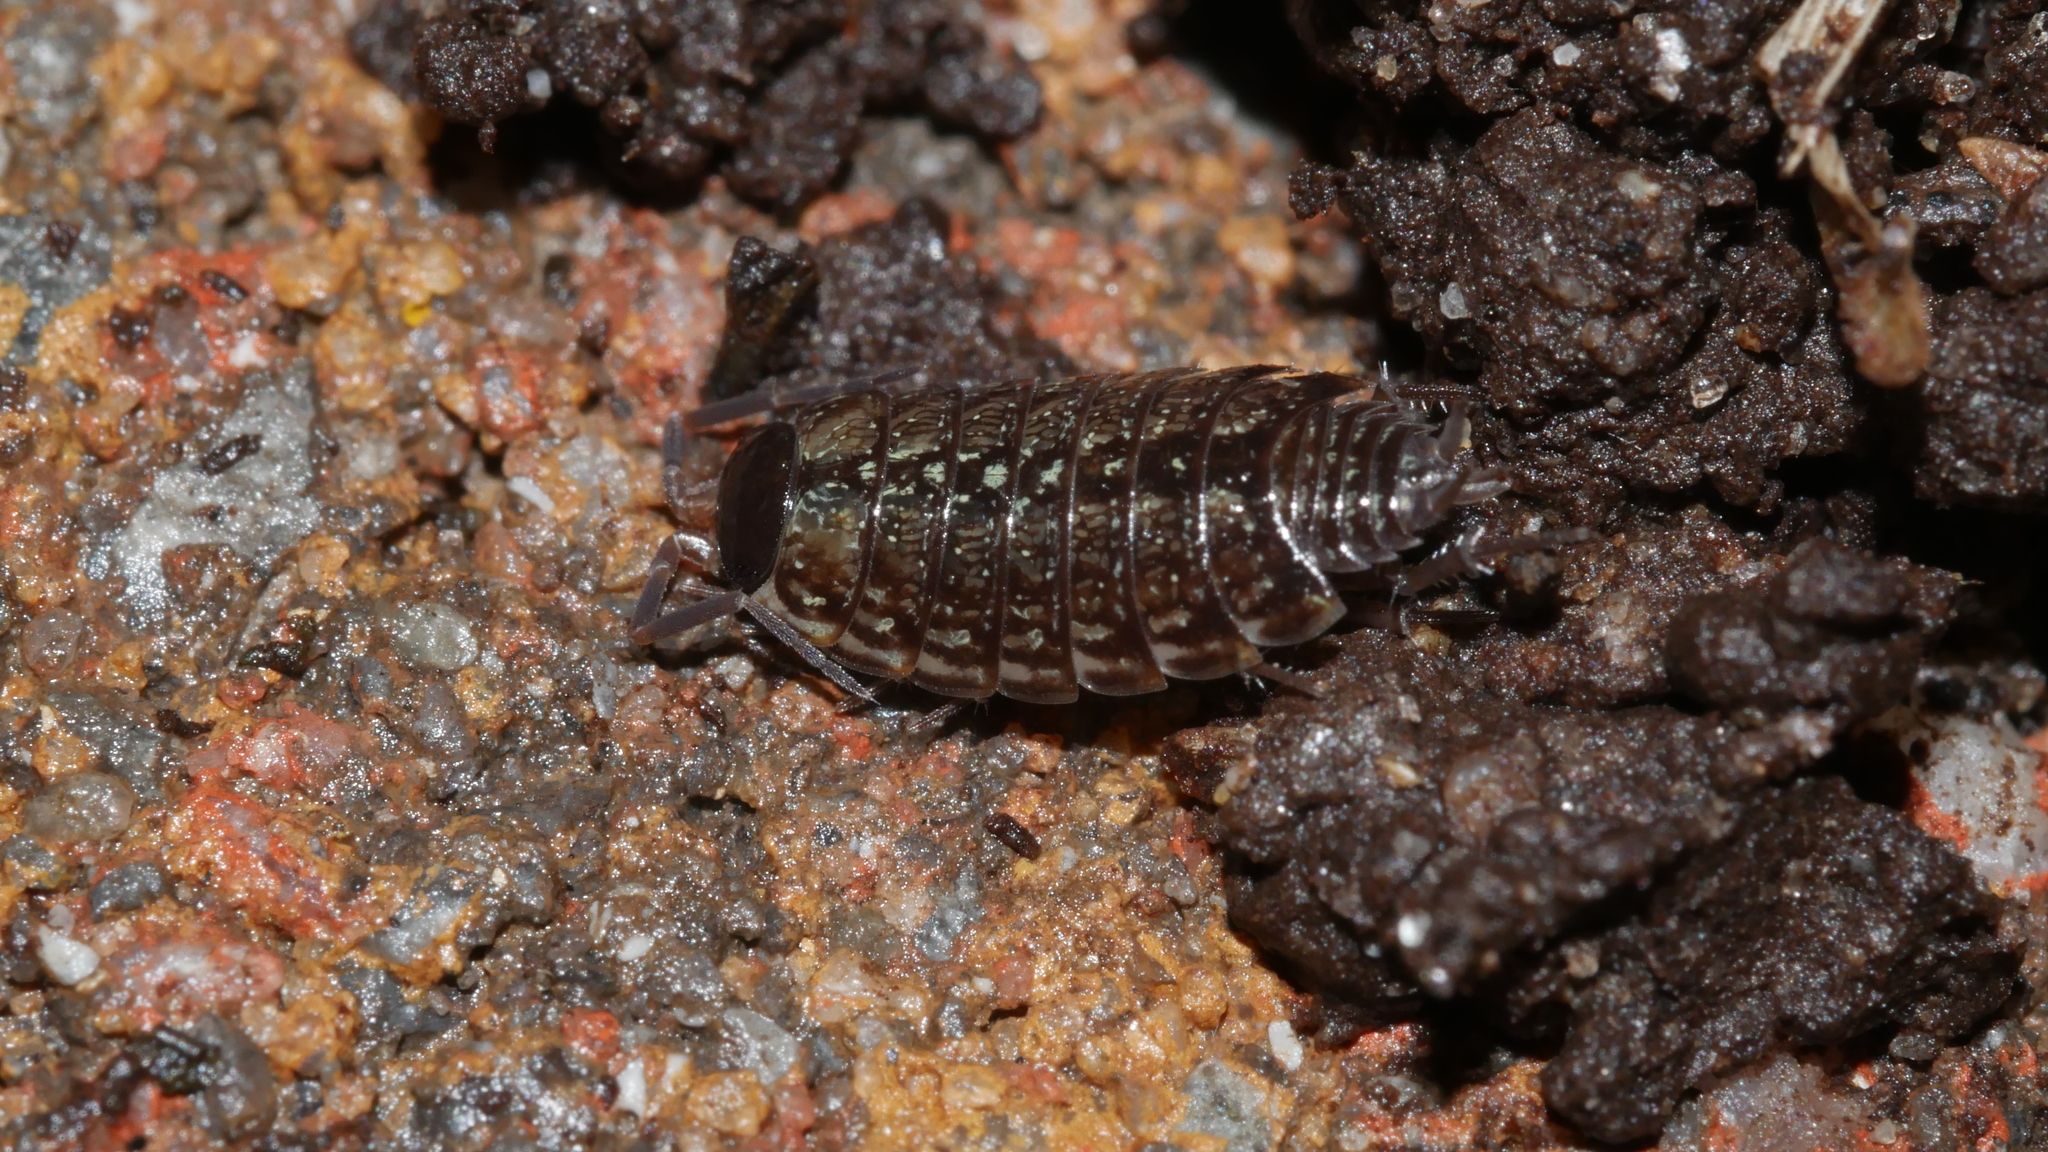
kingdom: Animalia
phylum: Arthropoda
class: Malacostraca
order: Isopoda
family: Philosciidae
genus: Philoscia
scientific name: Philoscia muscorum
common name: Common striped woodlouse
